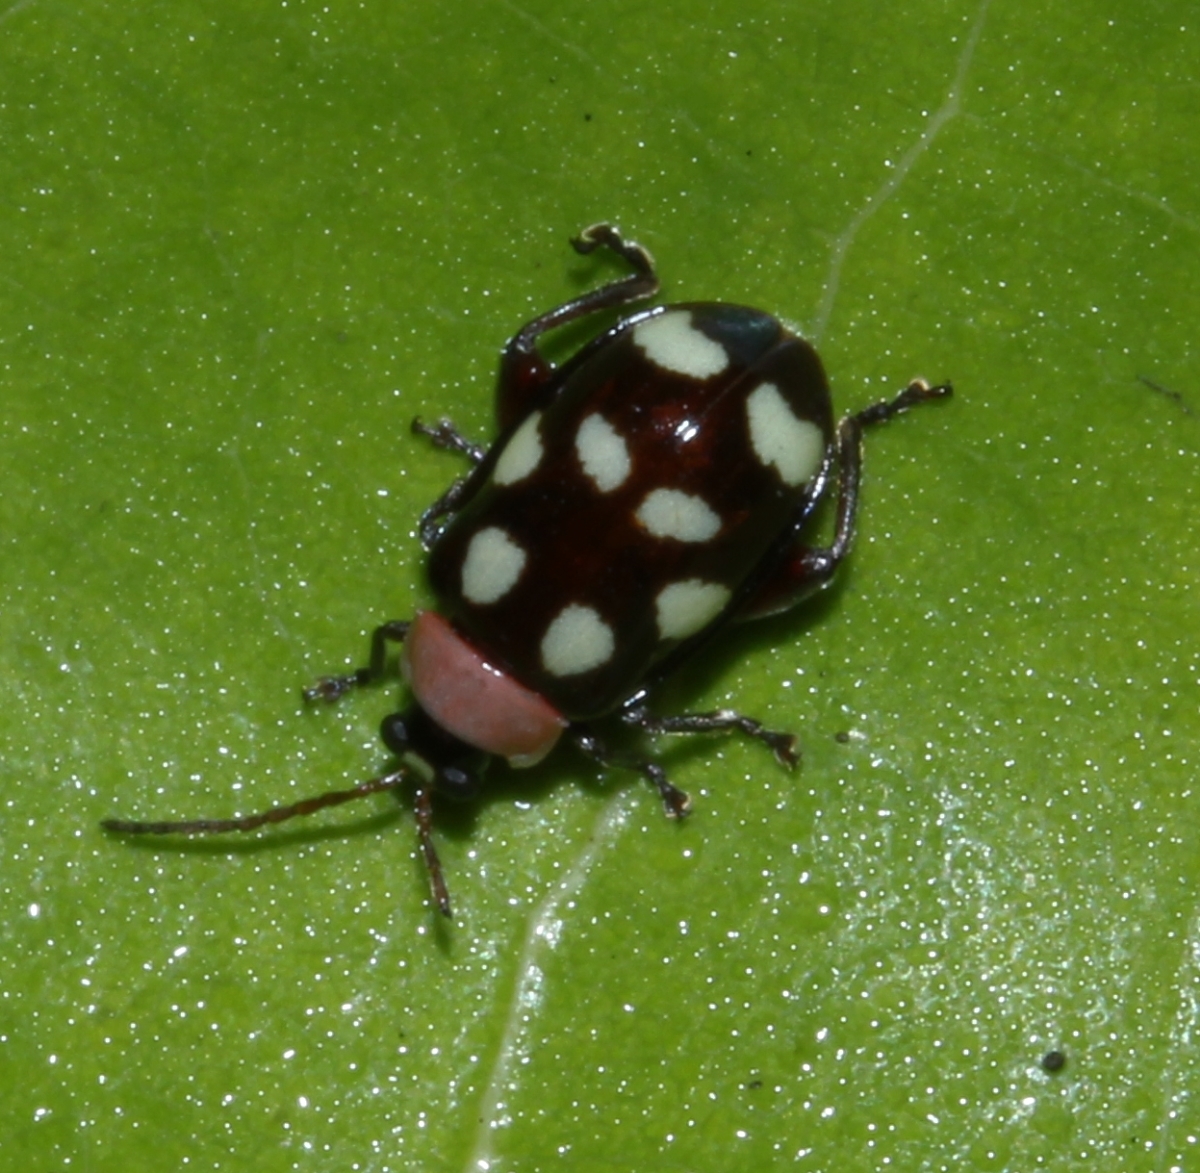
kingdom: Animalia
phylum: Arthropoda
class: Insecta
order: Coleoptera
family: Chrysomelidae
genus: Omophoita
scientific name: Omophoita aequinoctialis
